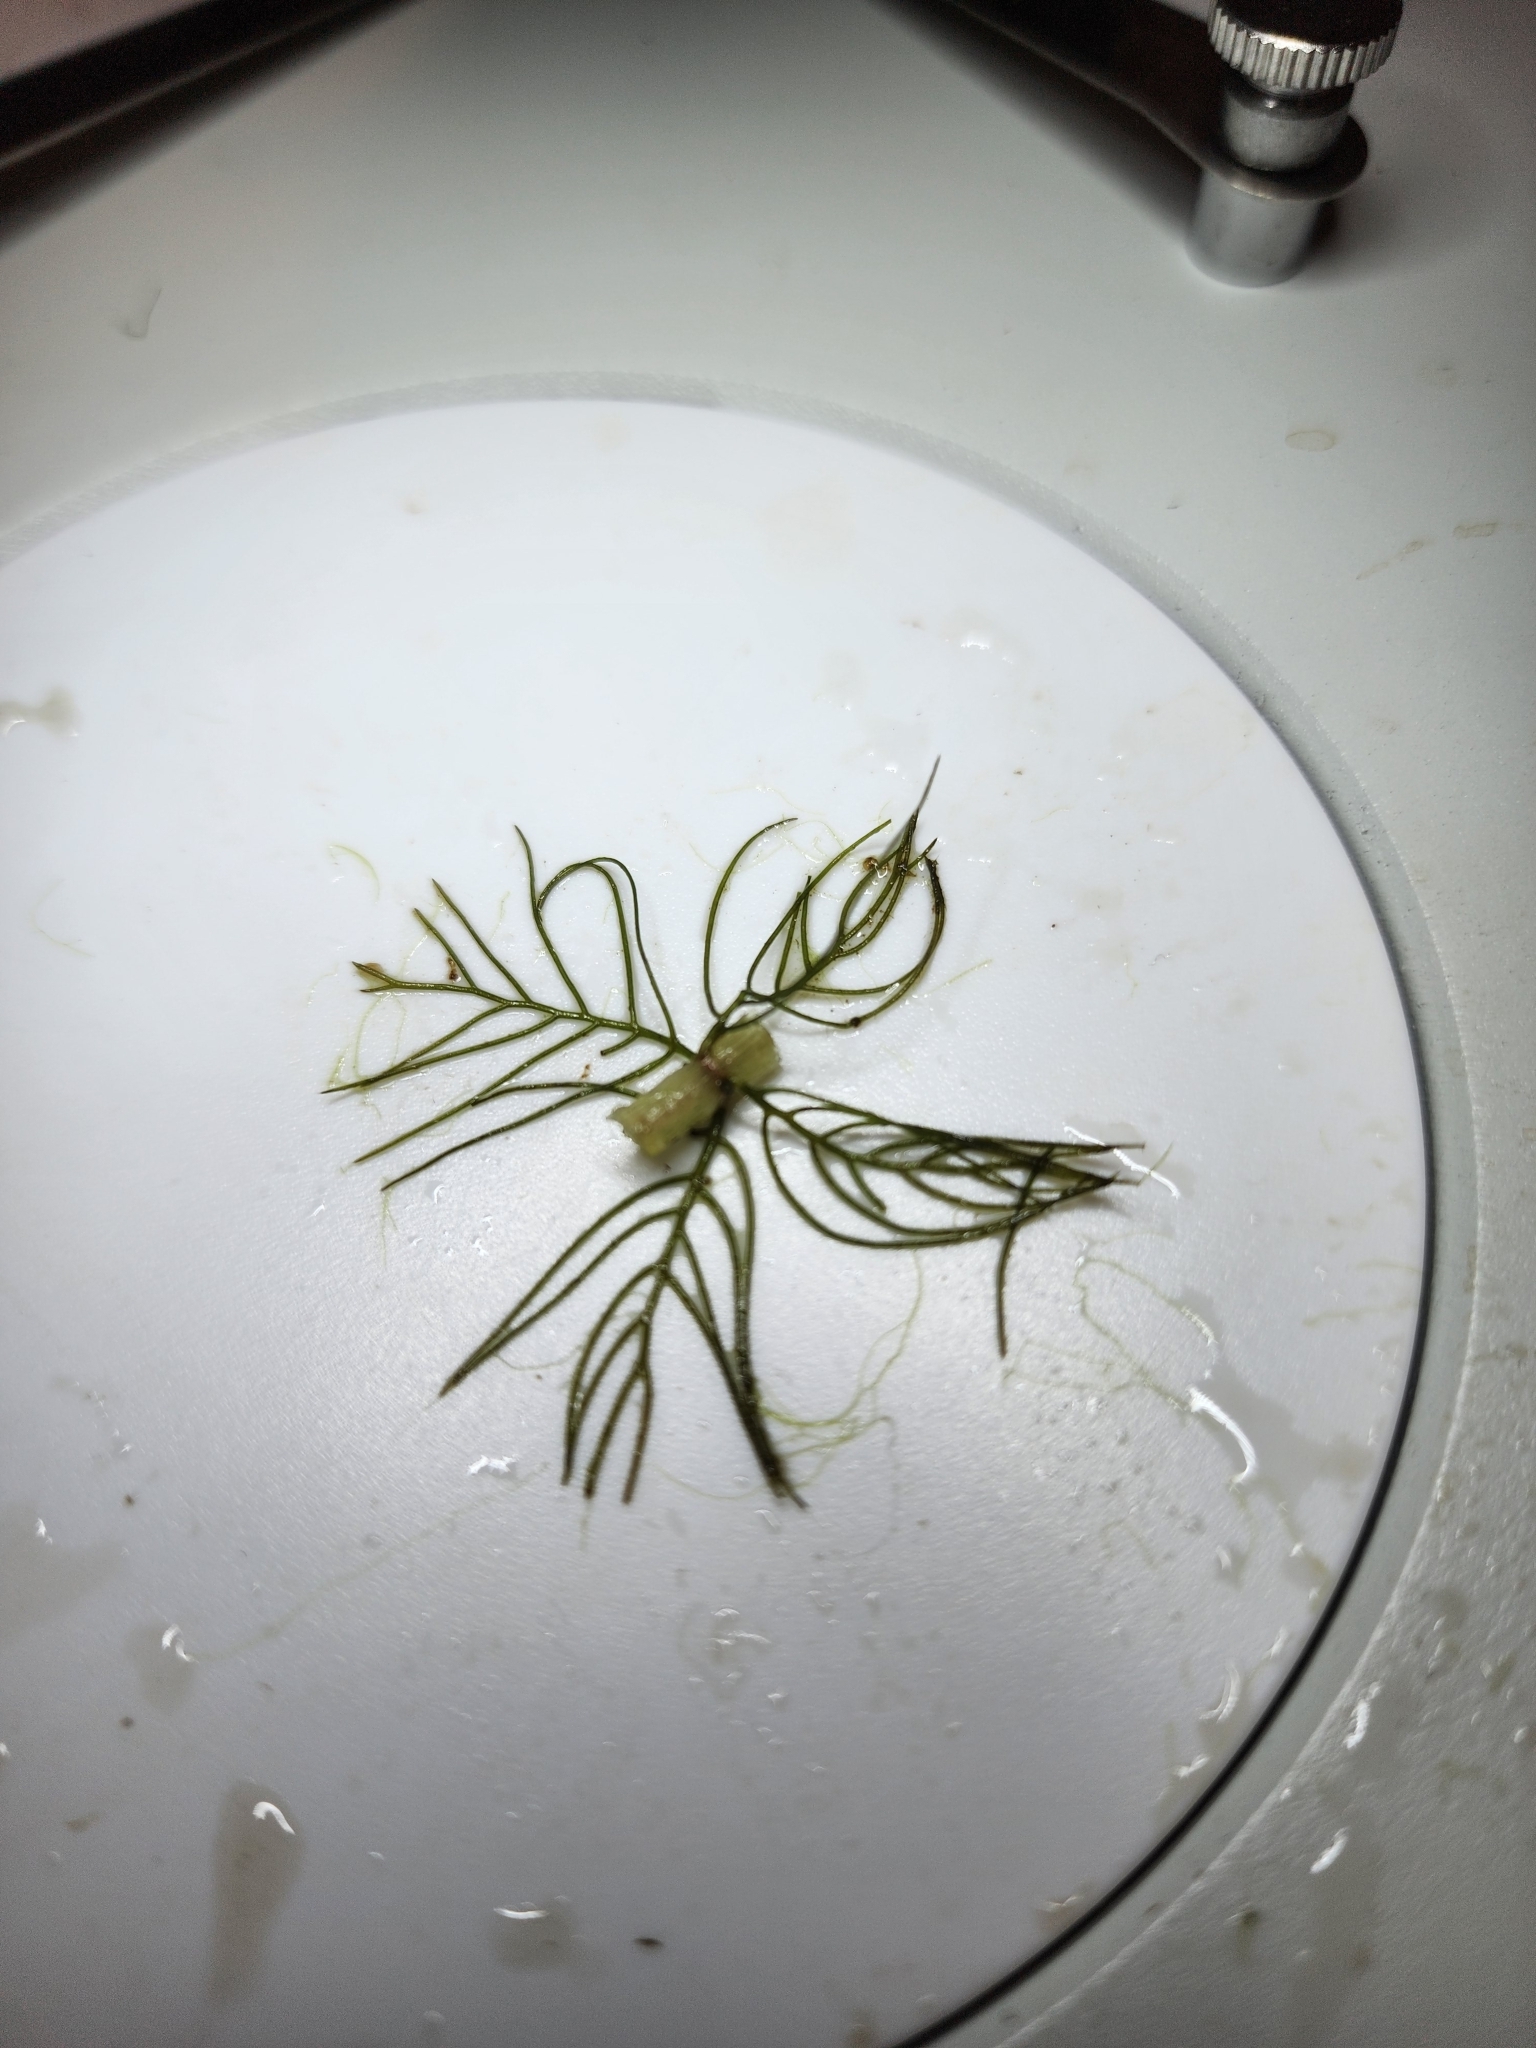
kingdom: Plantae
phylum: Tracheophyta
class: Magnoliopsida
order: Saxifragales
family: Haloragaceae
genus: Myriophyllum
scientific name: Myriophyllum farwellii
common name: Farwell's water-milfoil
